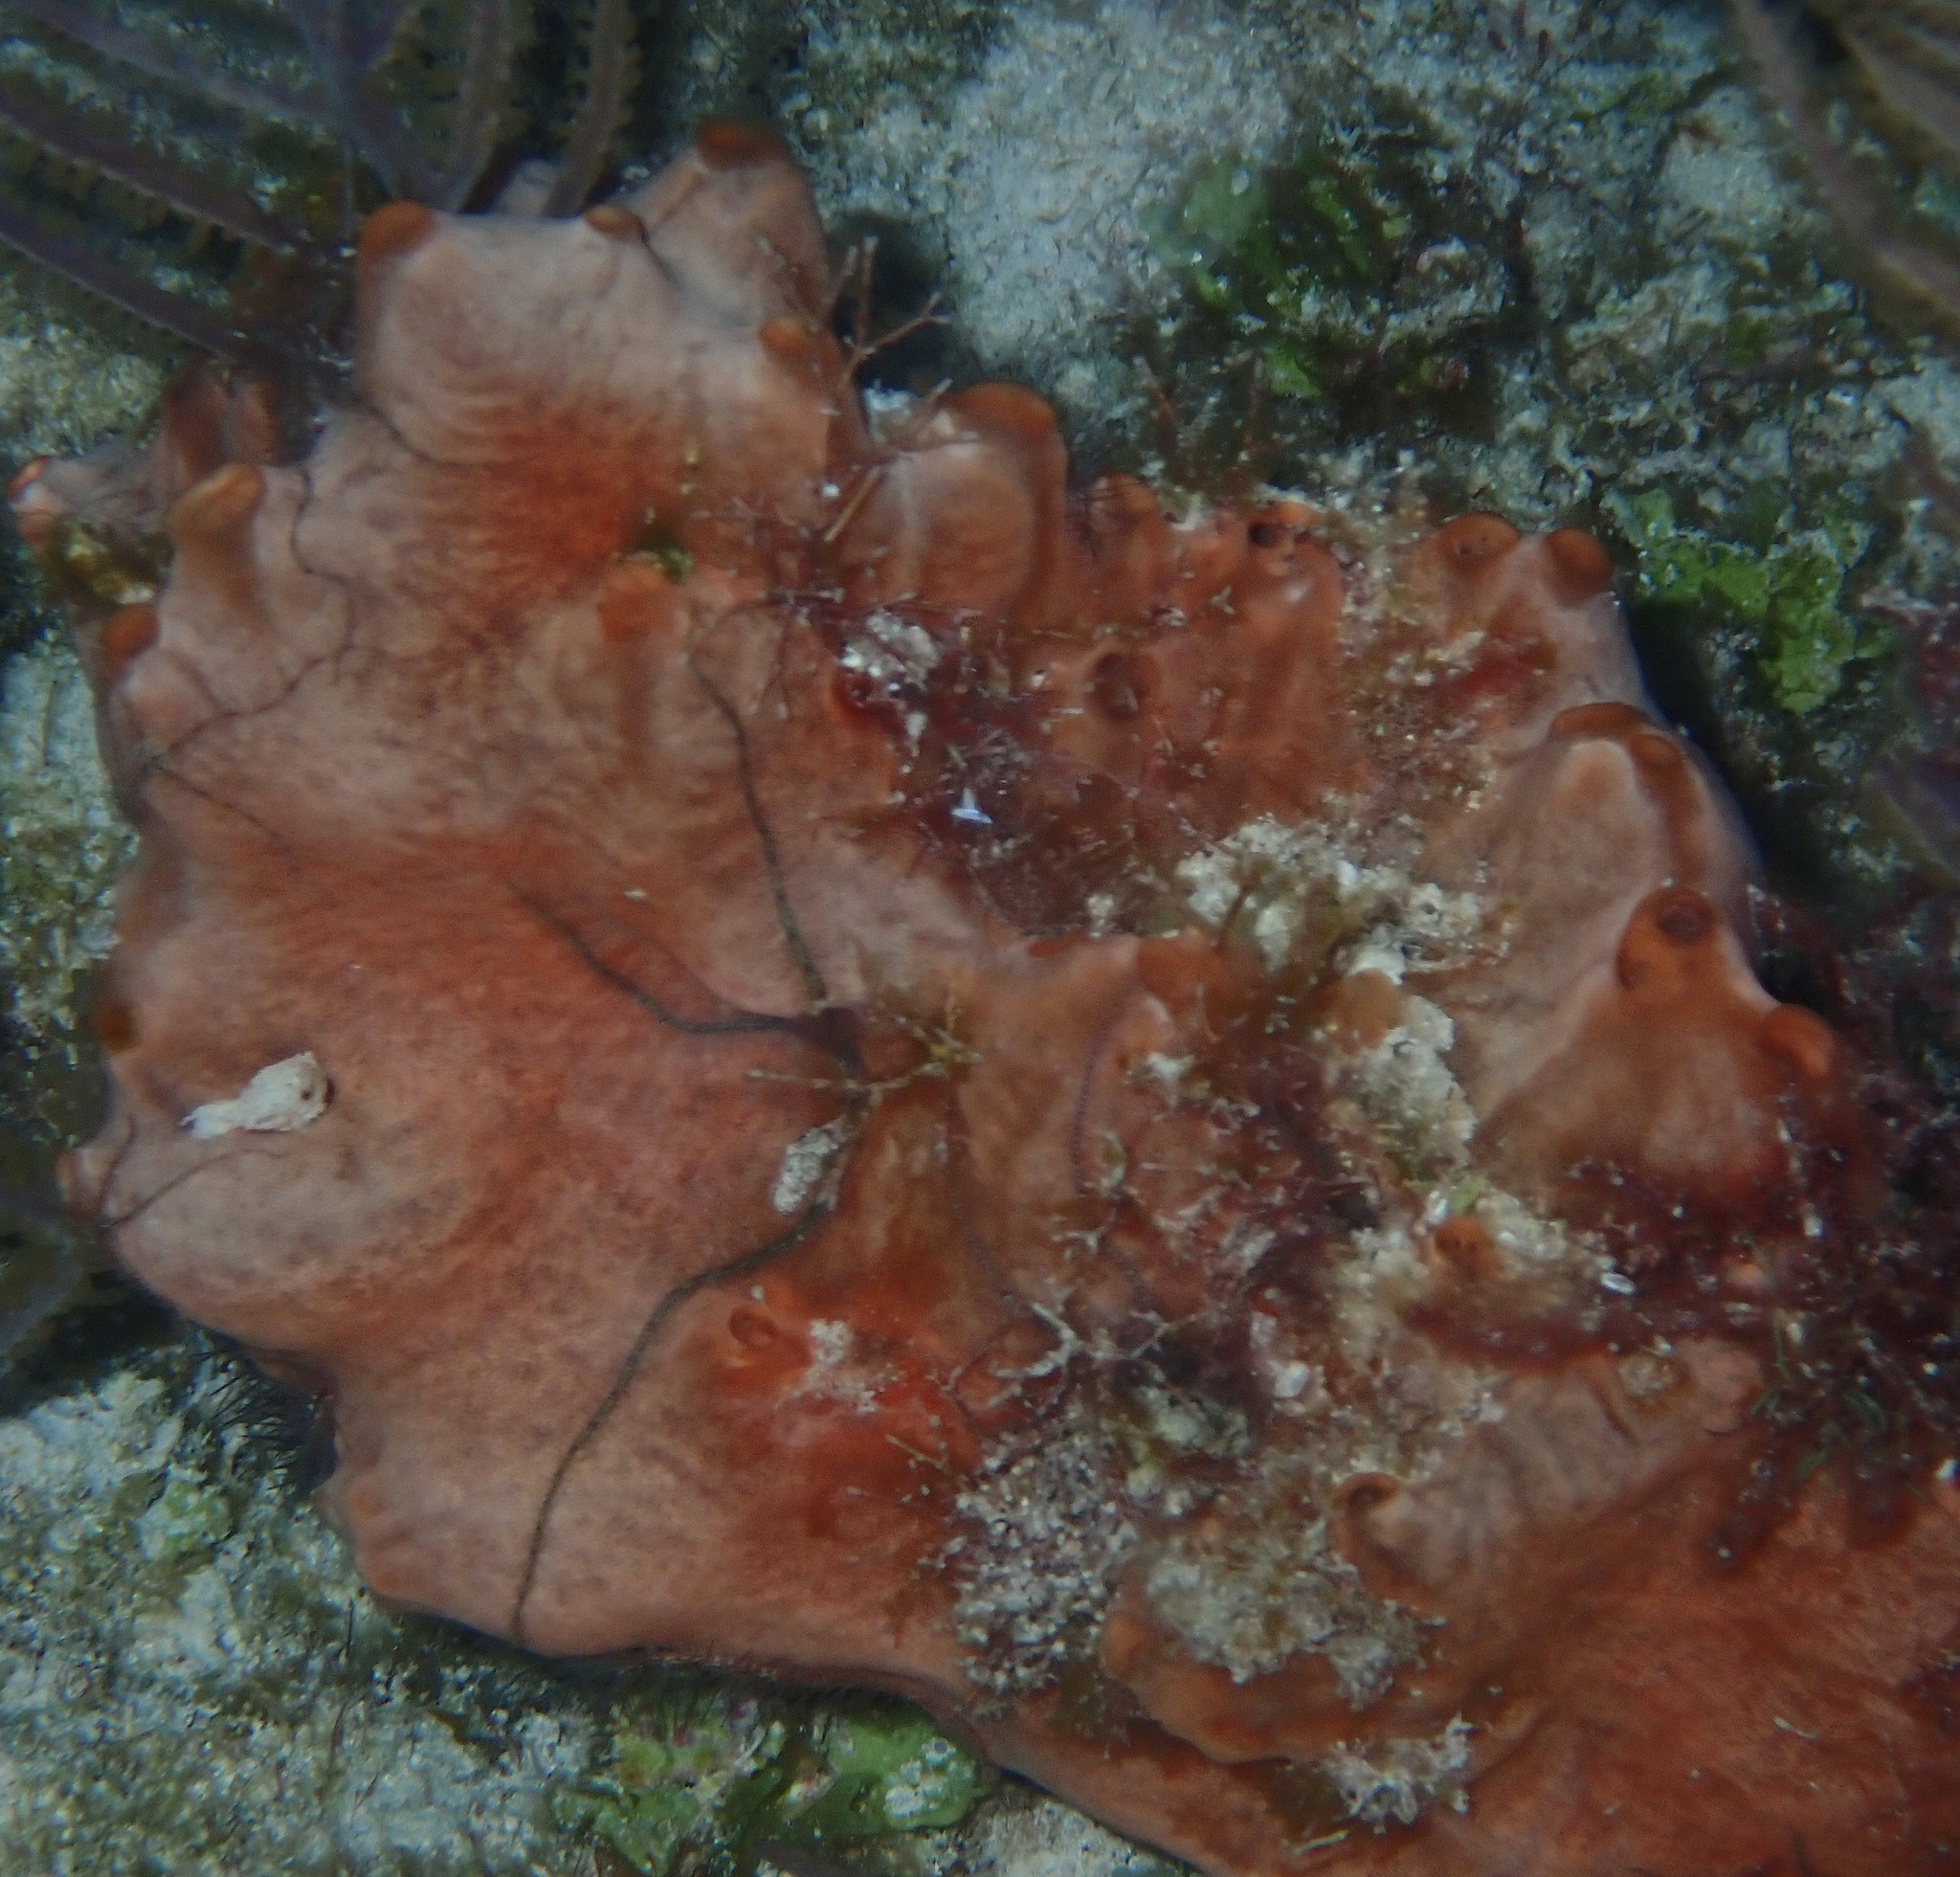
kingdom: Animalia
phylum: Porifera
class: Demospongiae
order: Poecilosclerida
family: Desmacididae
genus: Desmapsamma
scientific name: Desmapsamma anchorata
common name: Lumpy overgrowing sponge
